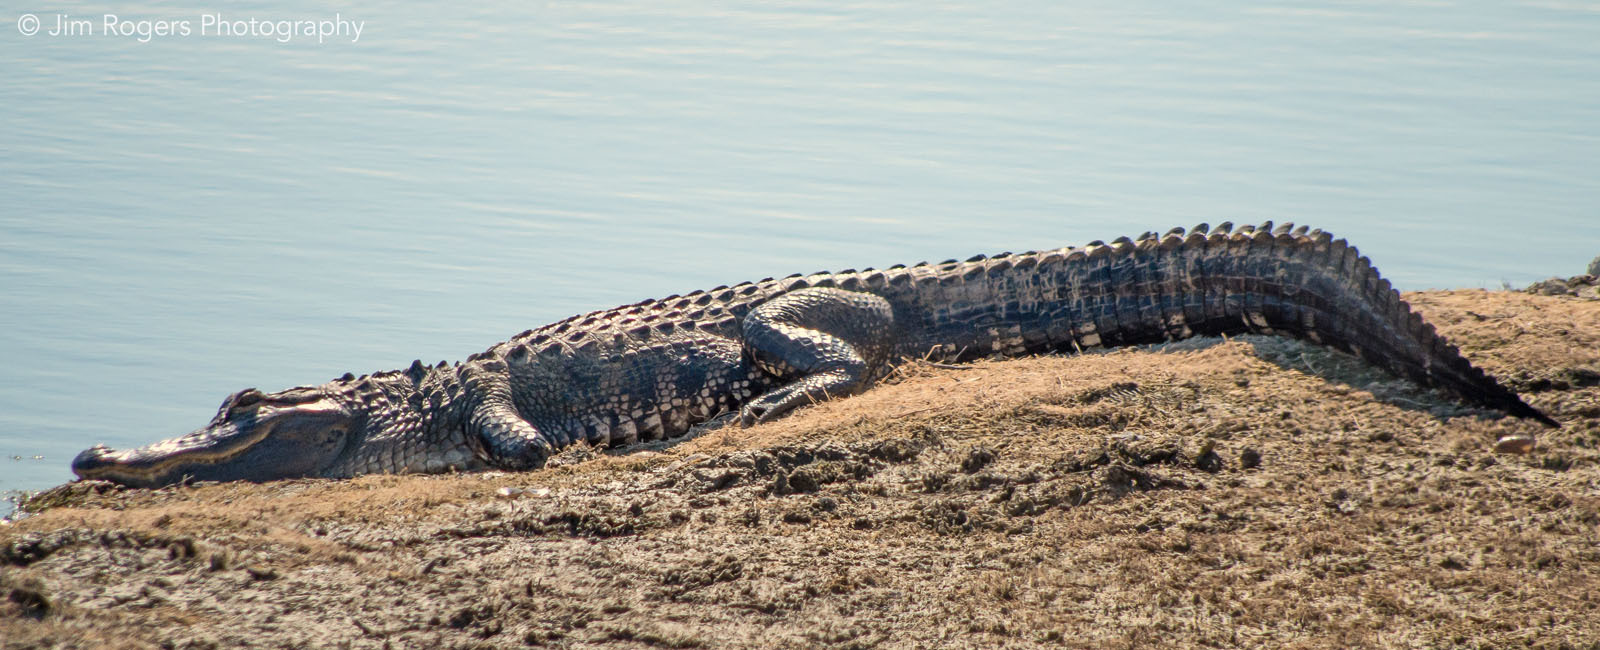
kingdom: Animalia
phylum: Chordata
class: Crocodylia
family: Alligatoridae
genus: Alligator
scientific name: Alligator mississippiensis
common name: American alligator
